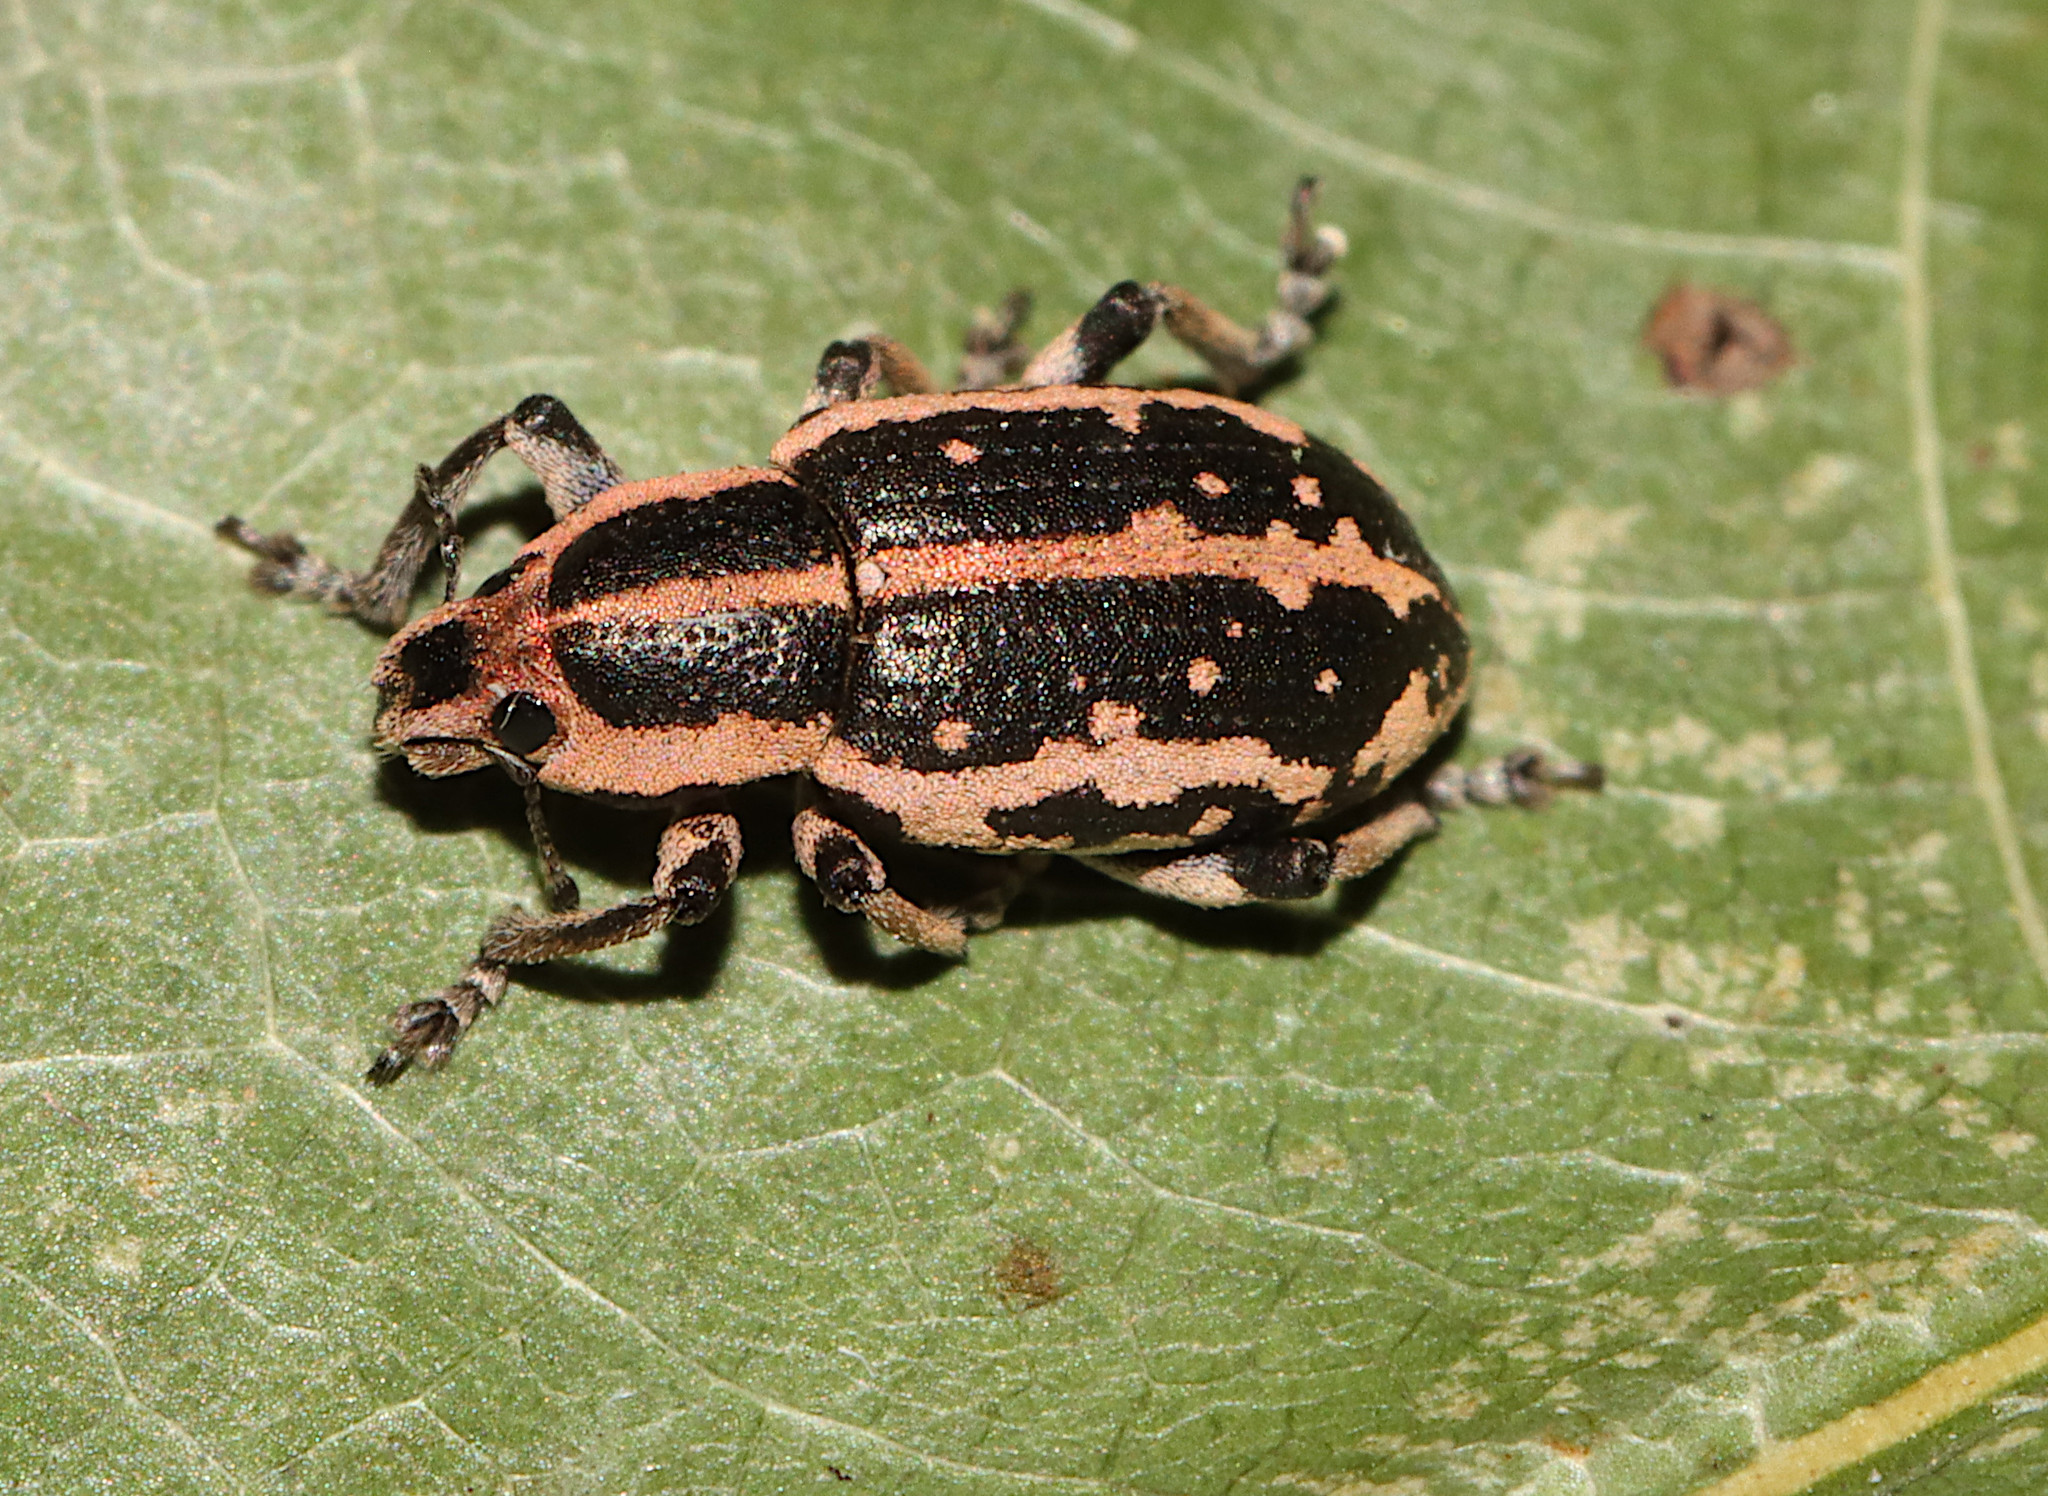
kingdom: Animalia
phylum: Arthropoda
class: Insecta
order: Coleoptera
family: Curculionidae
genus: Eudiagogus
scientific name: Eudiagogus rosenschoeldi
